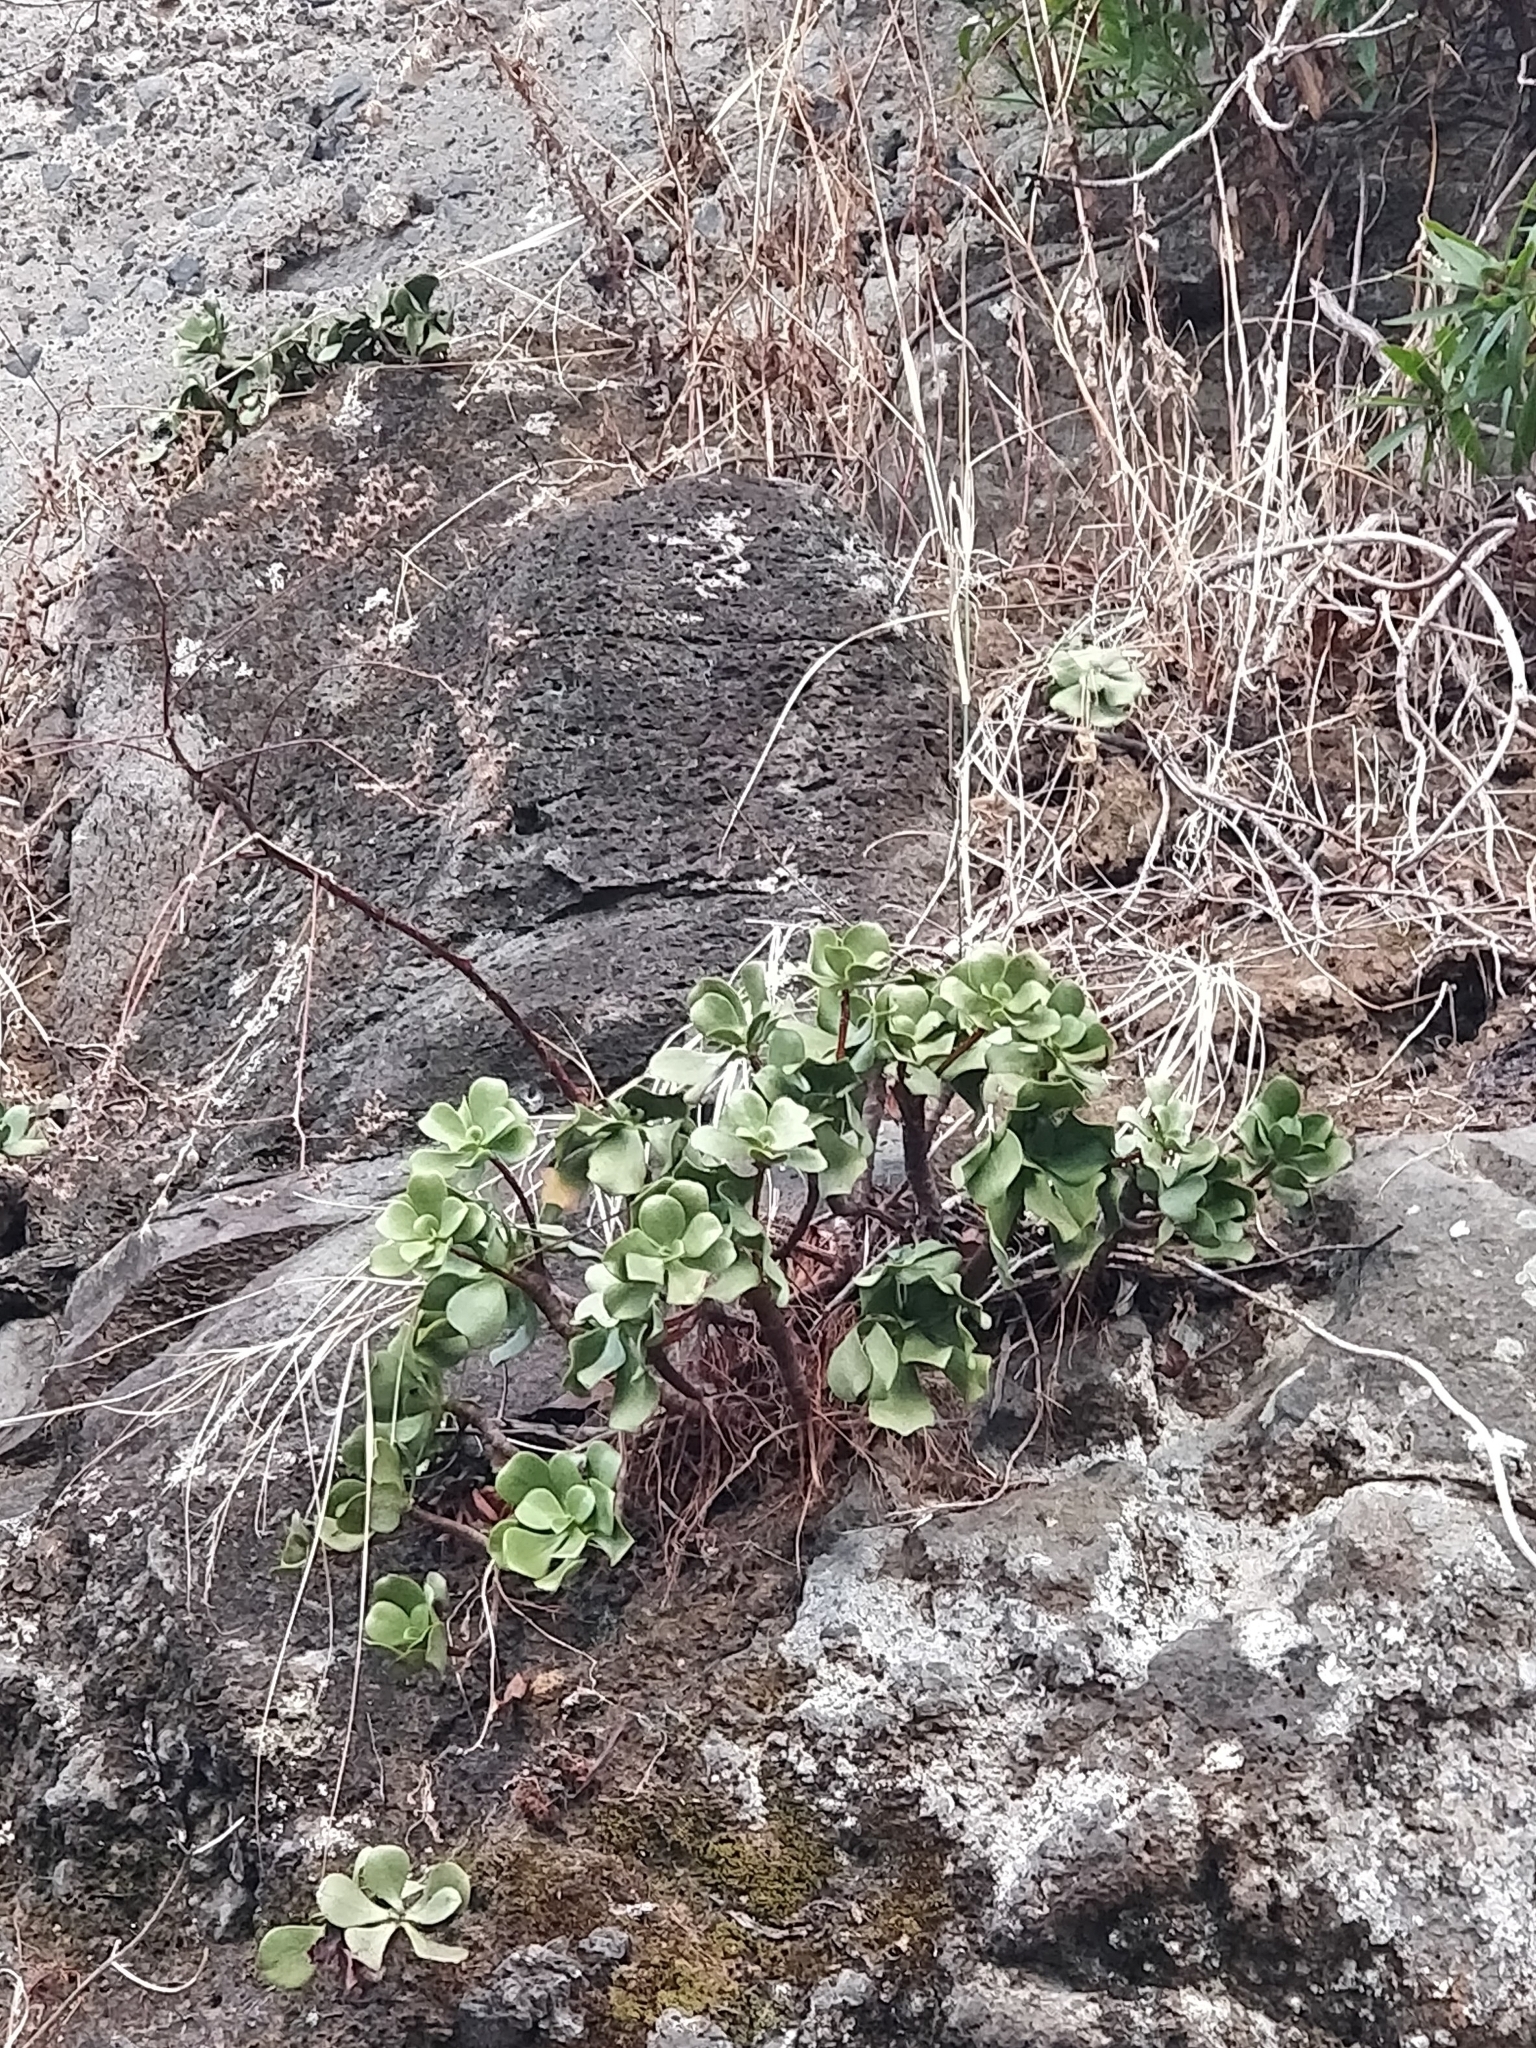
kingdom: Plantae
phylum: Tracheophyta
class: Magnoliopsida
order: Saxifragales
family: Crassulaceae
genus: Aeonium
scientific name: Aeonium glutinosum
